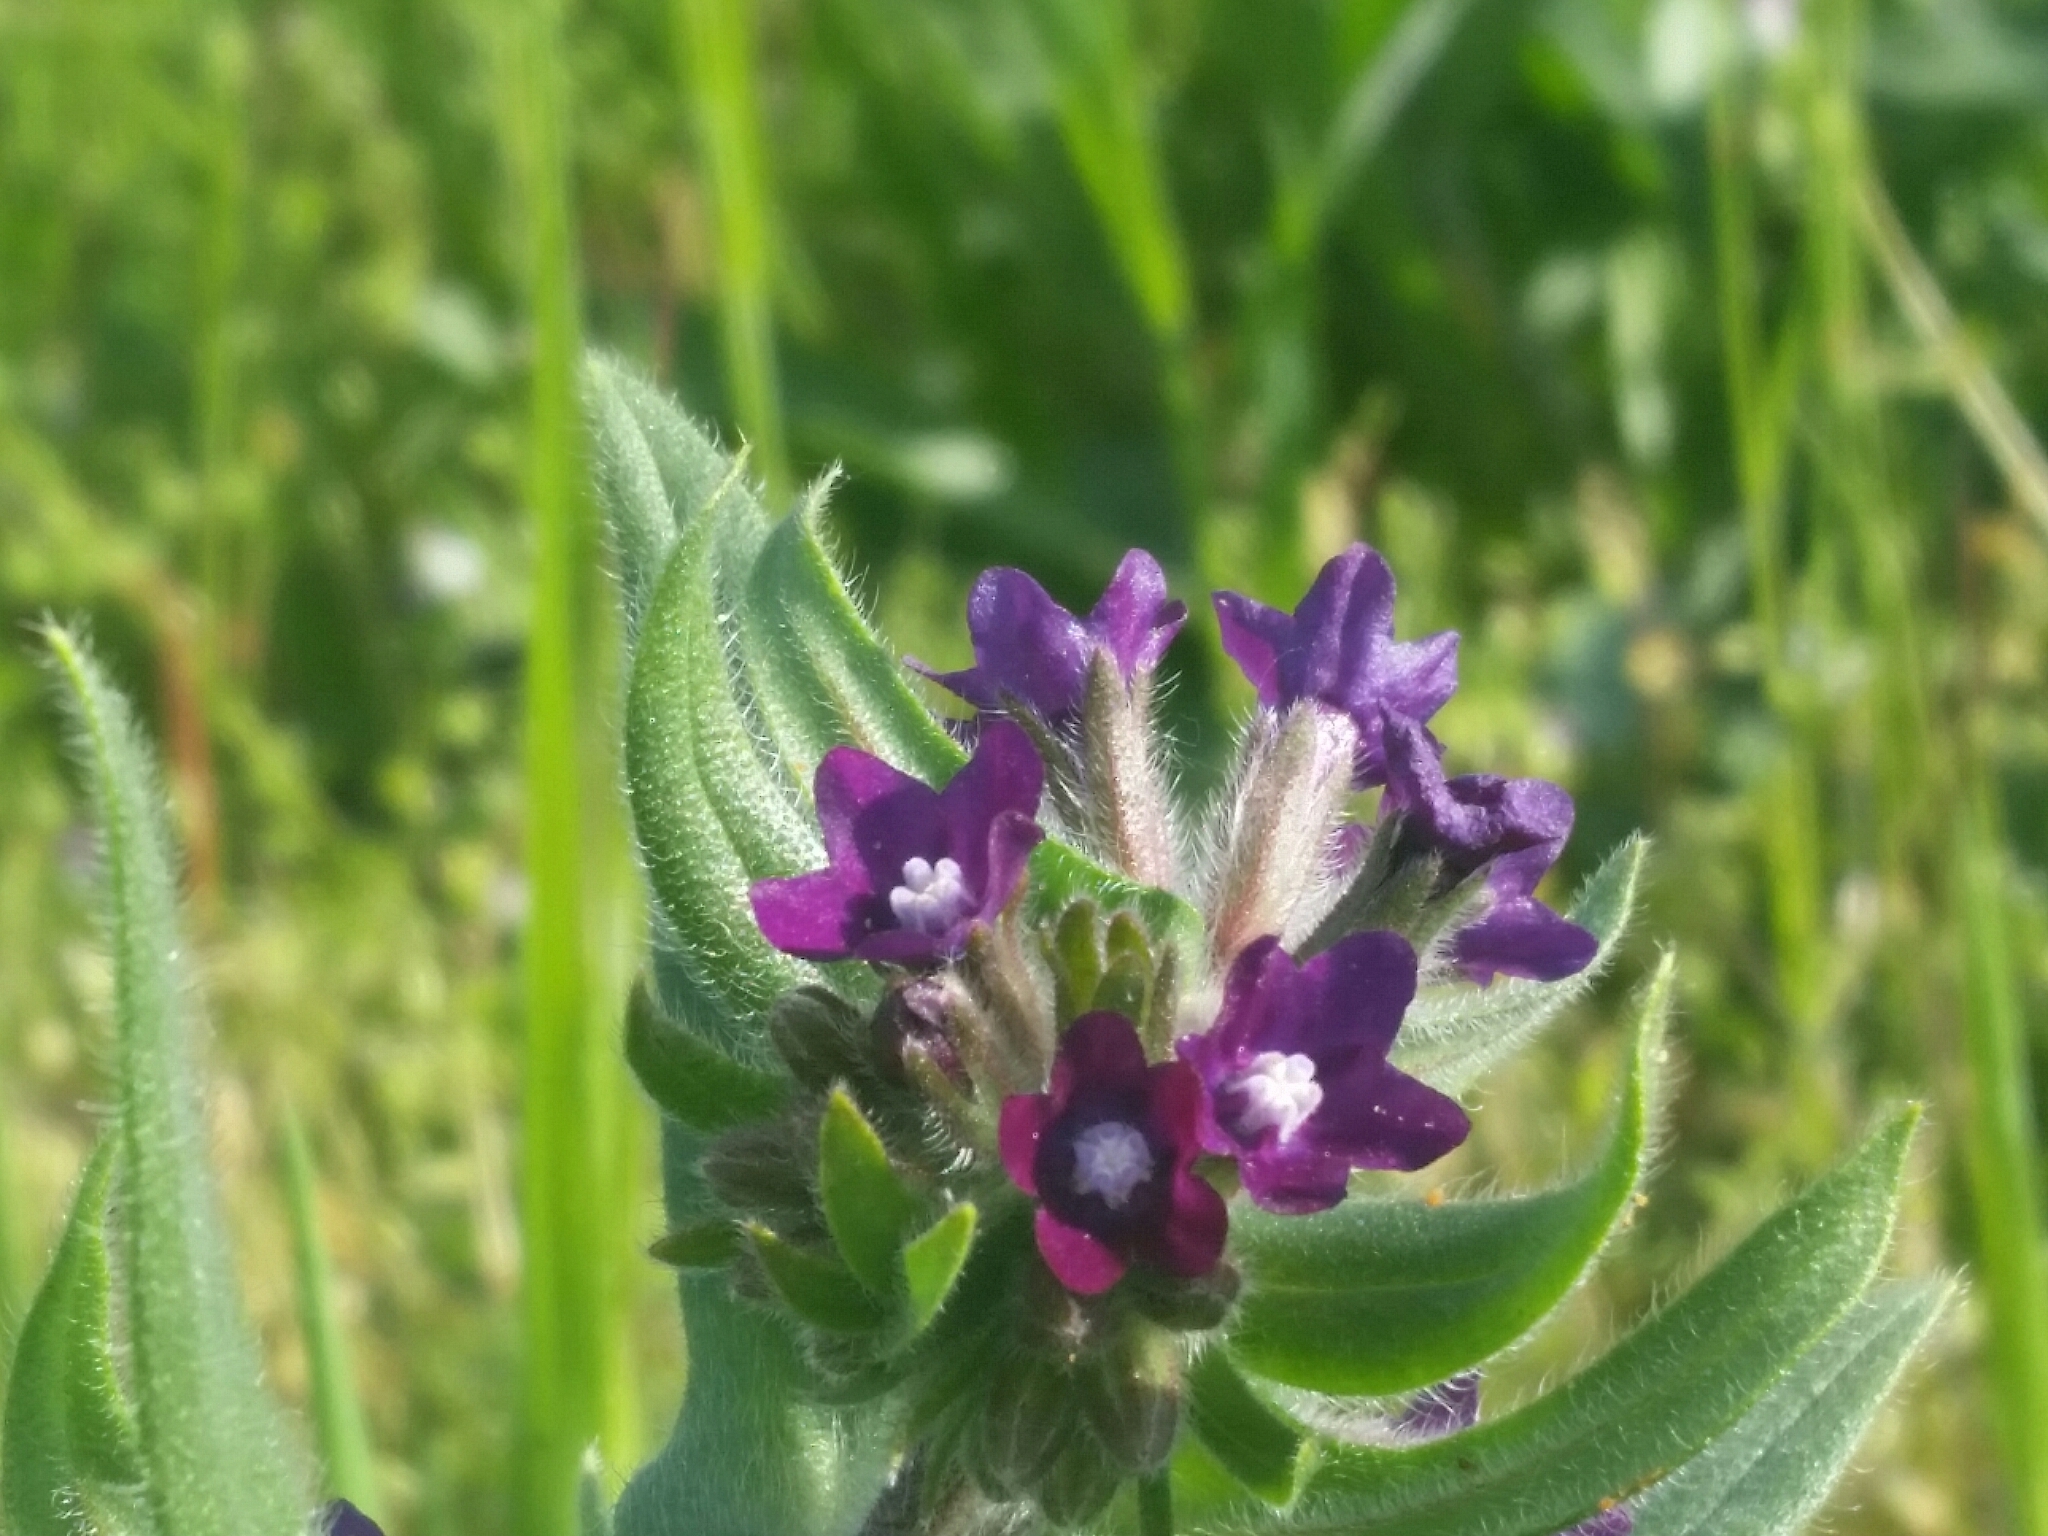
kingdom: Plantae
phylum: Tracheophyta
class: Magnoliopsida
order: Boraginales
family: Boraginaceae
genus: Anchusa
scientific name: Anchusa officinalis
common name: Alkanet
